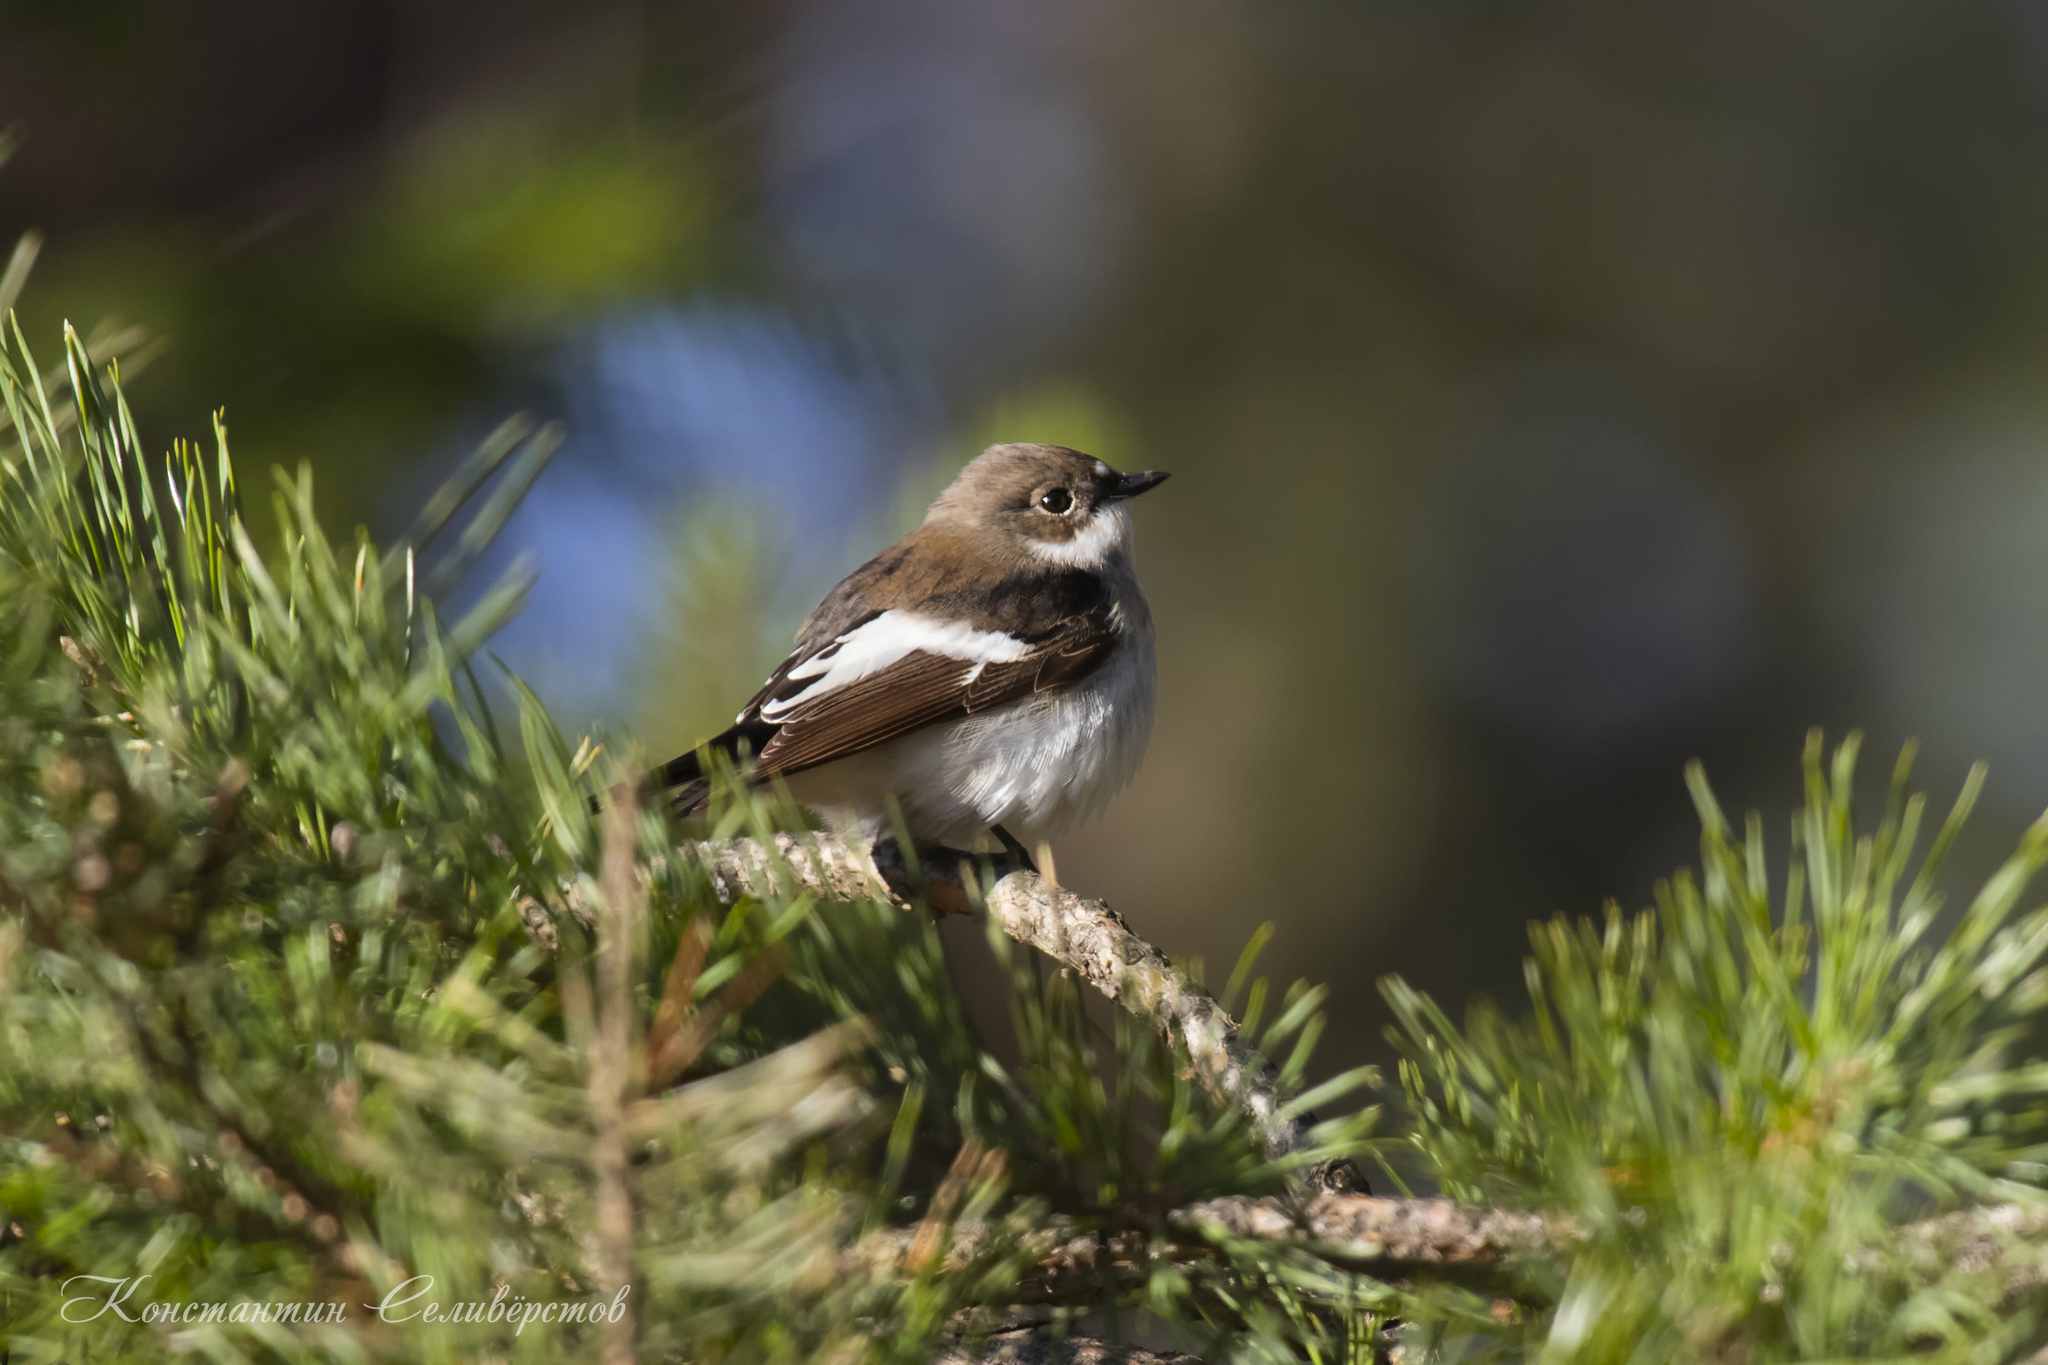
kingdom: Animalia
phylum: Chordata
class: Aves
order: Passeriformes
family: Muscicapidae
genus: Ficedula
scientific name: Ficedula hypoleuca
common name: European pied flycatcher
